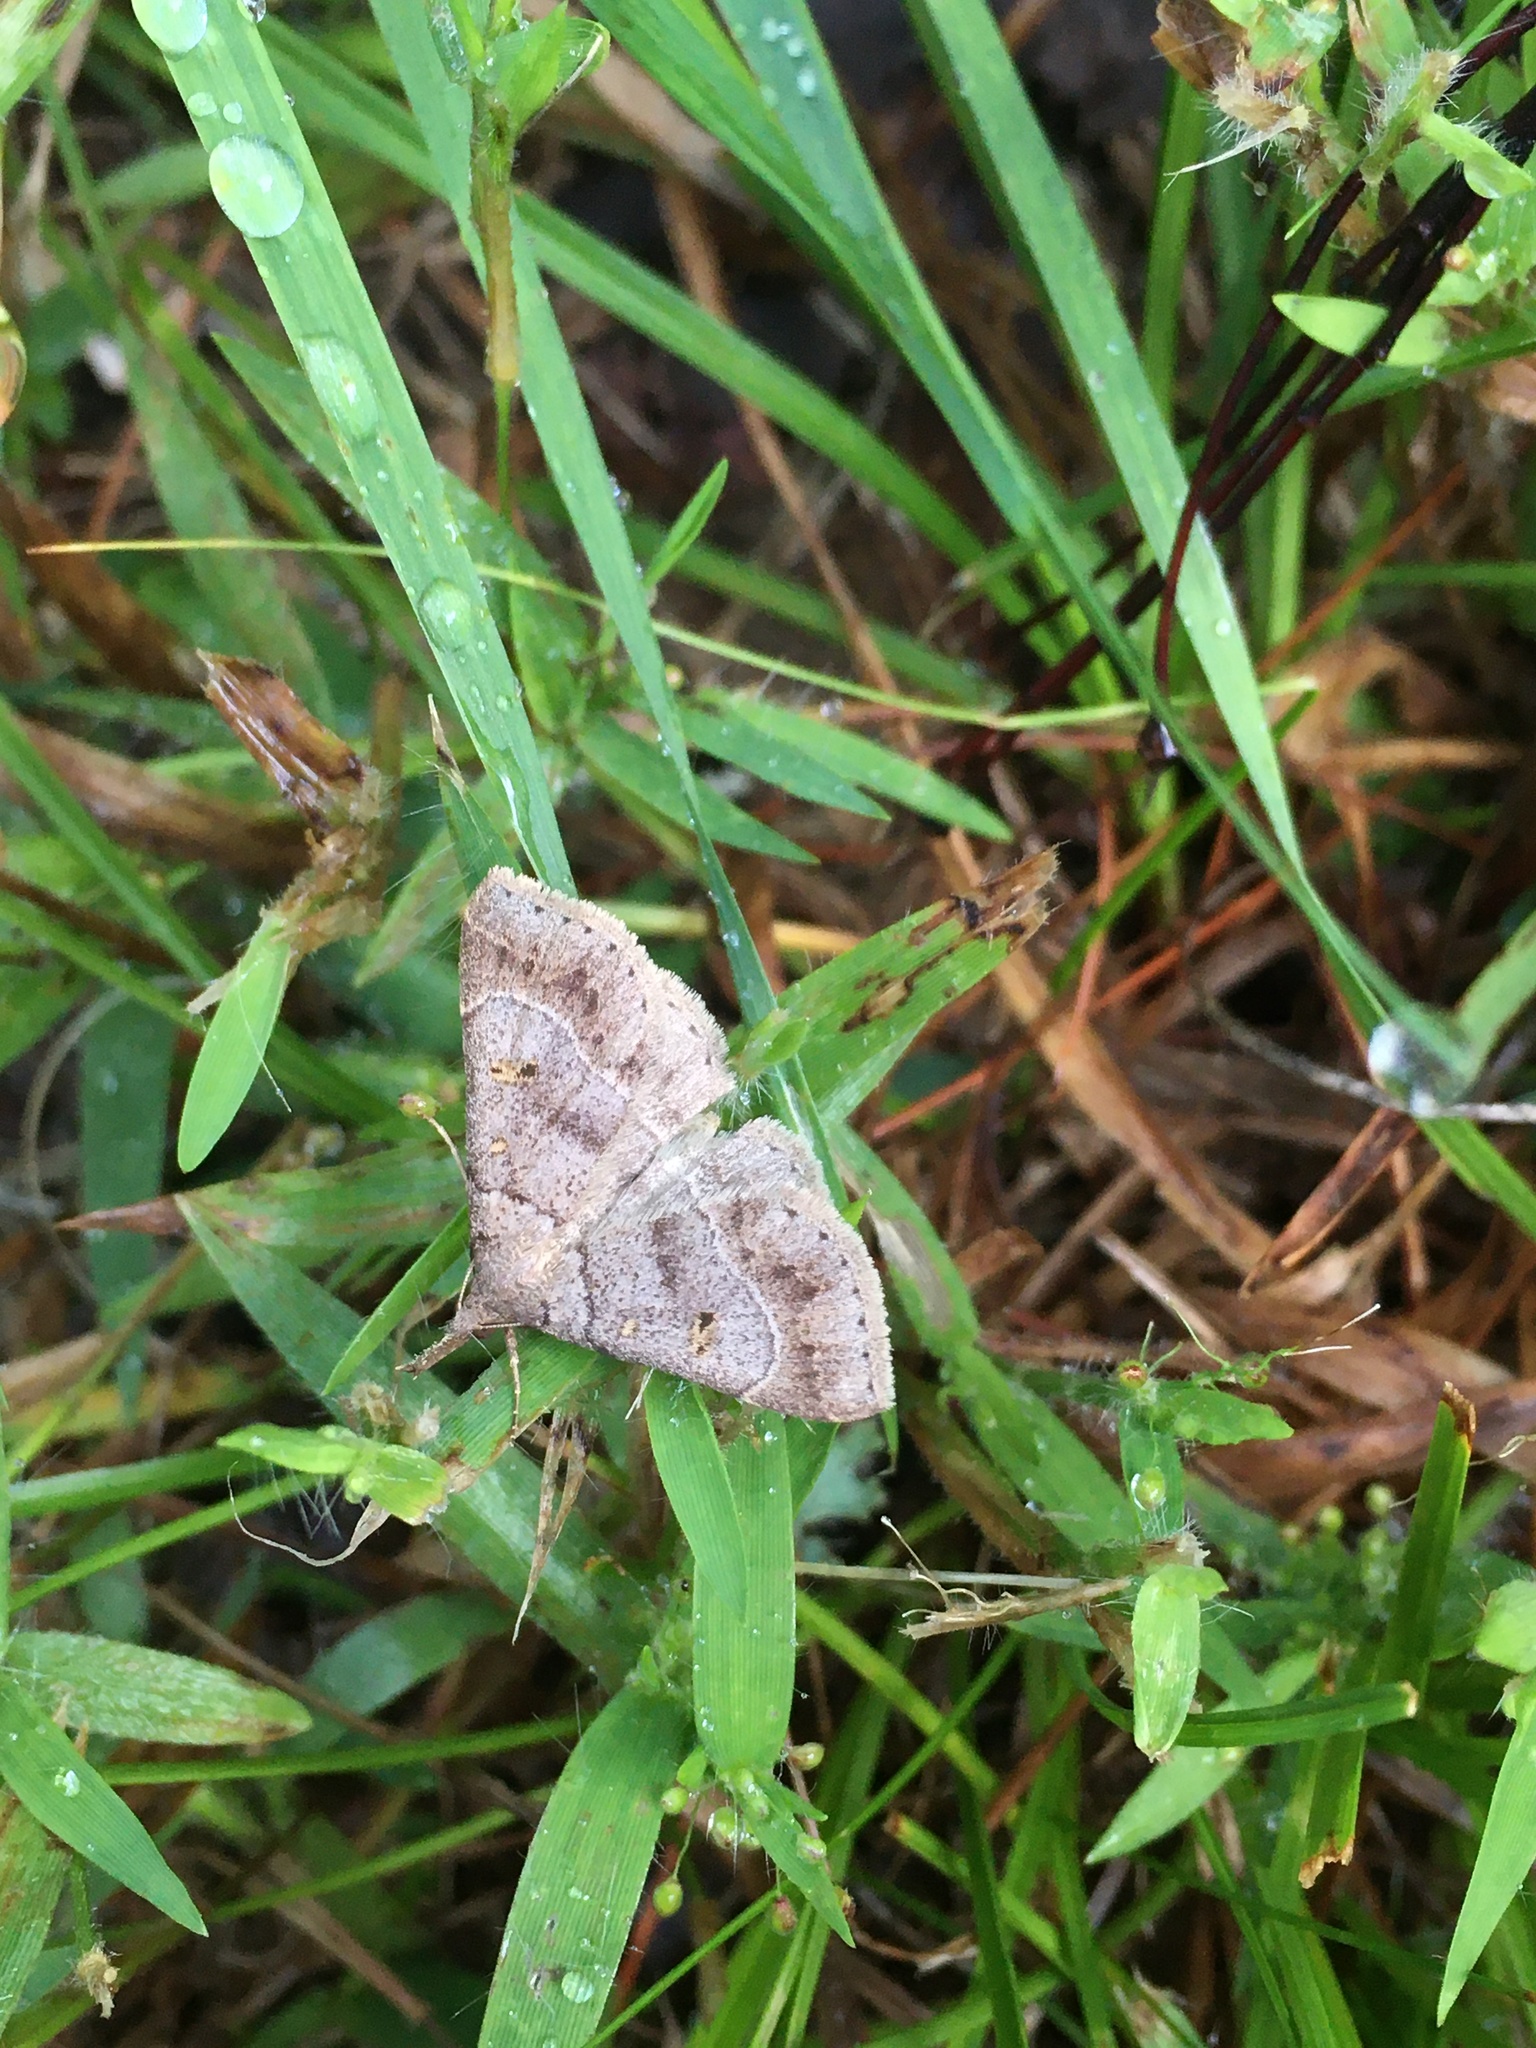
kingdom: Animalia
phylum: Arthropoda
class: Insecta
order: Lepidoptera
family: Erebidae
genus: Renia
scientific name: Renia flavipunctalis
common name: Yellow-spotted renia moth
